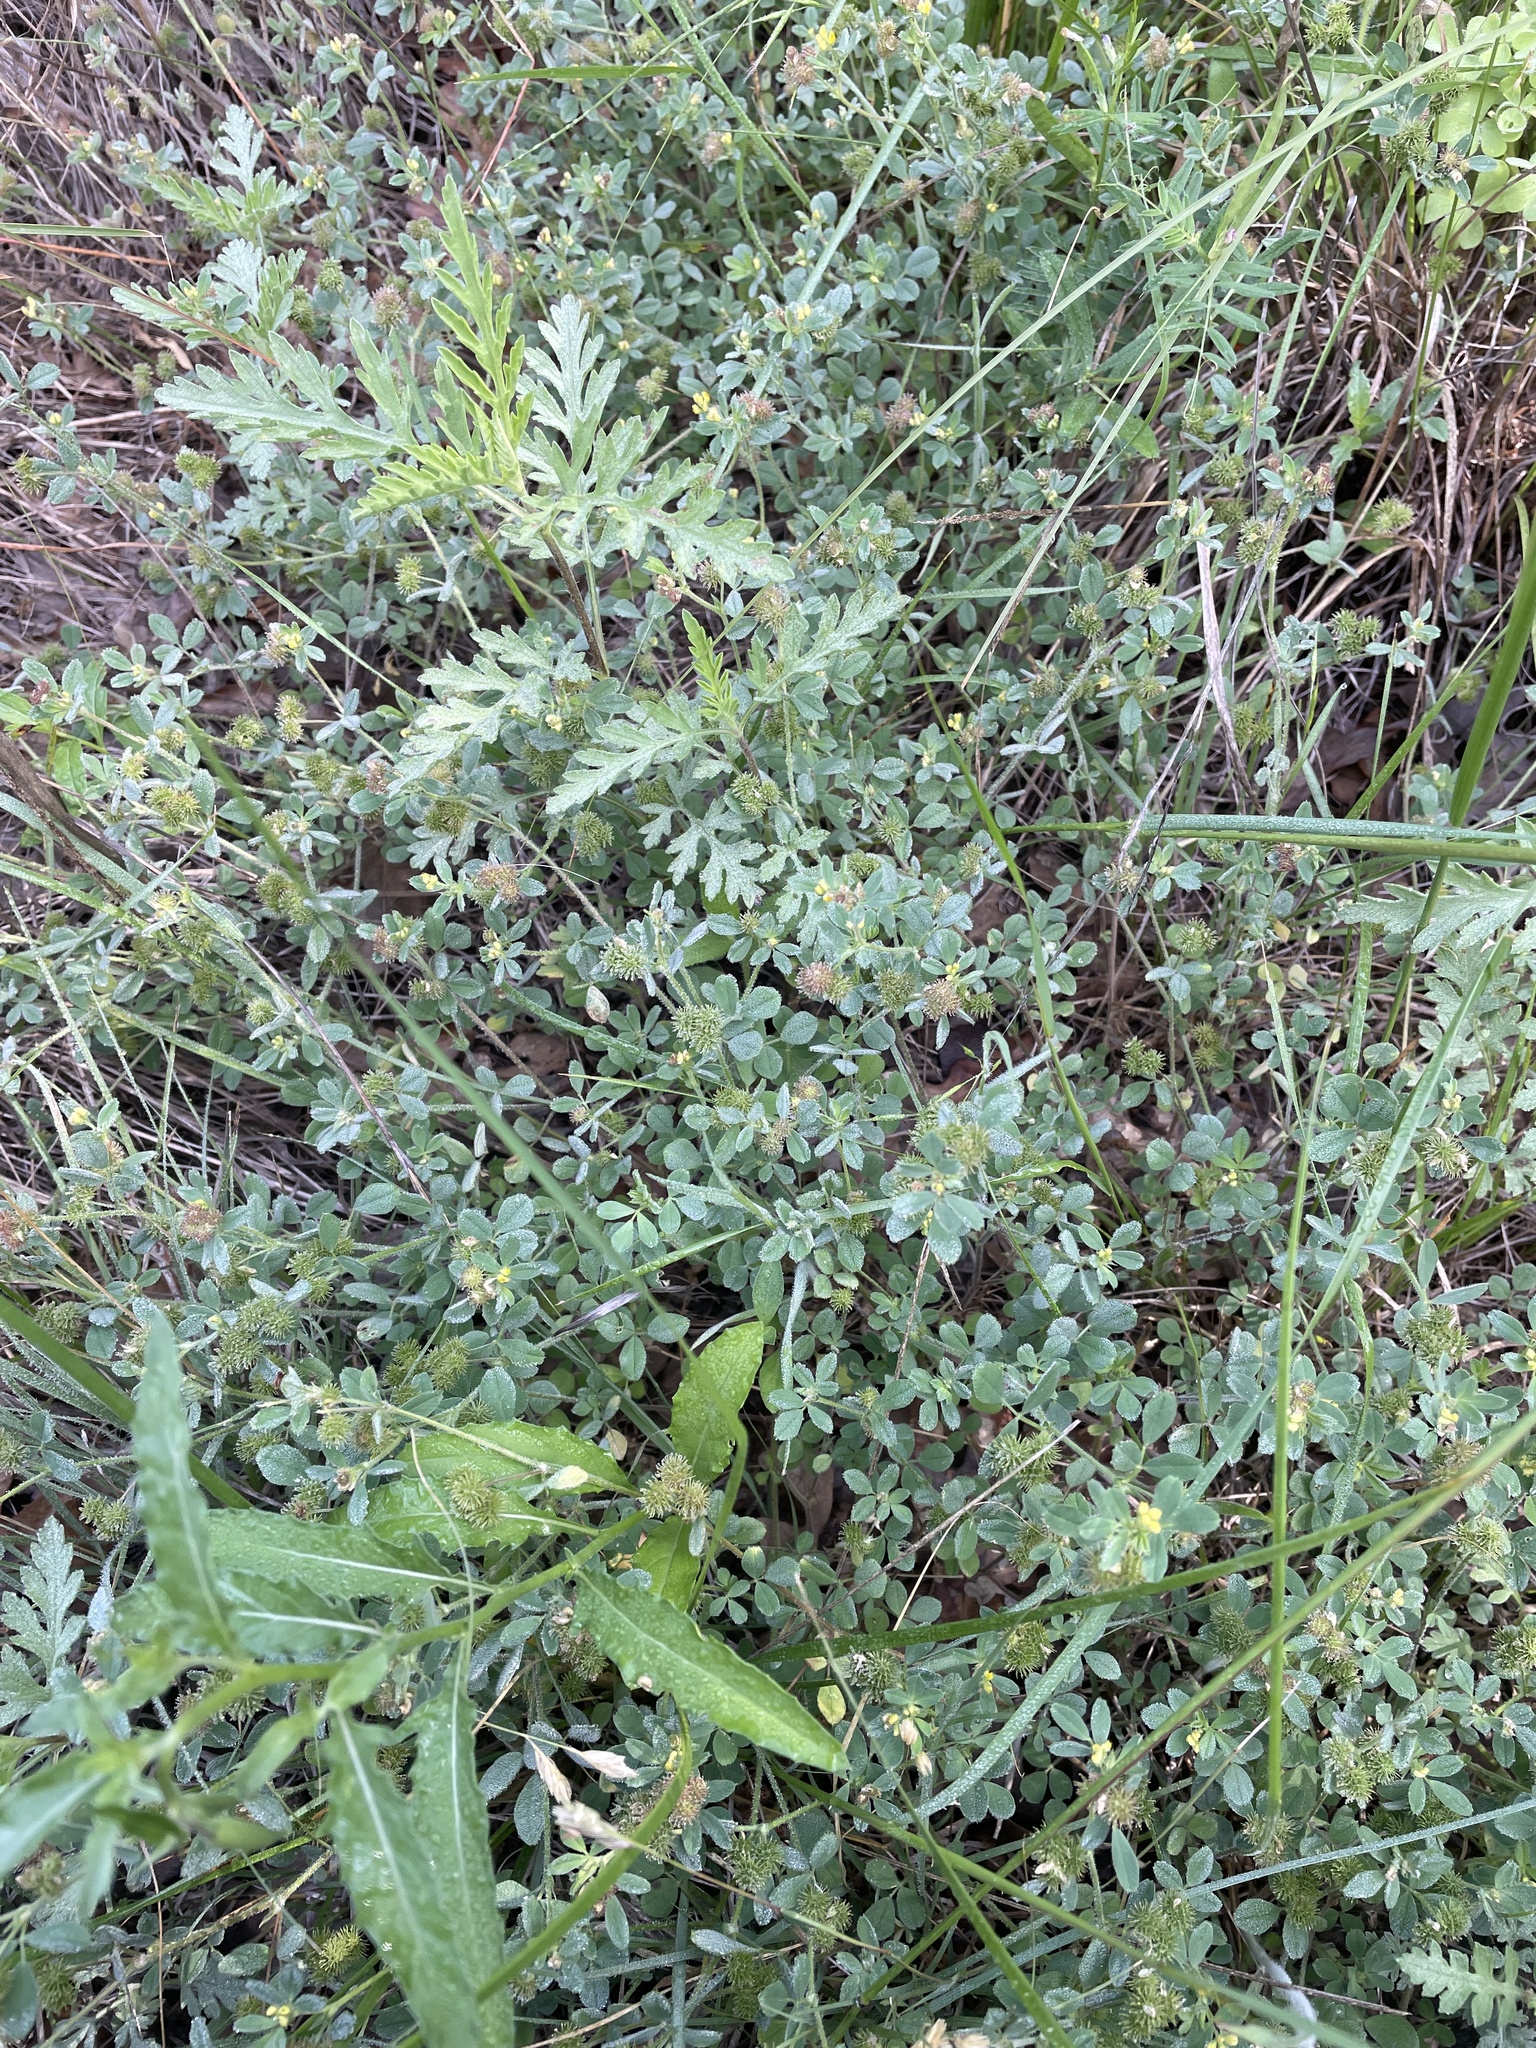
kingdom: Plantae
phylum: Tracheophyta
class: Magnoliopsida
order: Fabales
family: Fabaceae
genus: Medicago
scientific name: Medicago minima
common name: Little bur-clover
